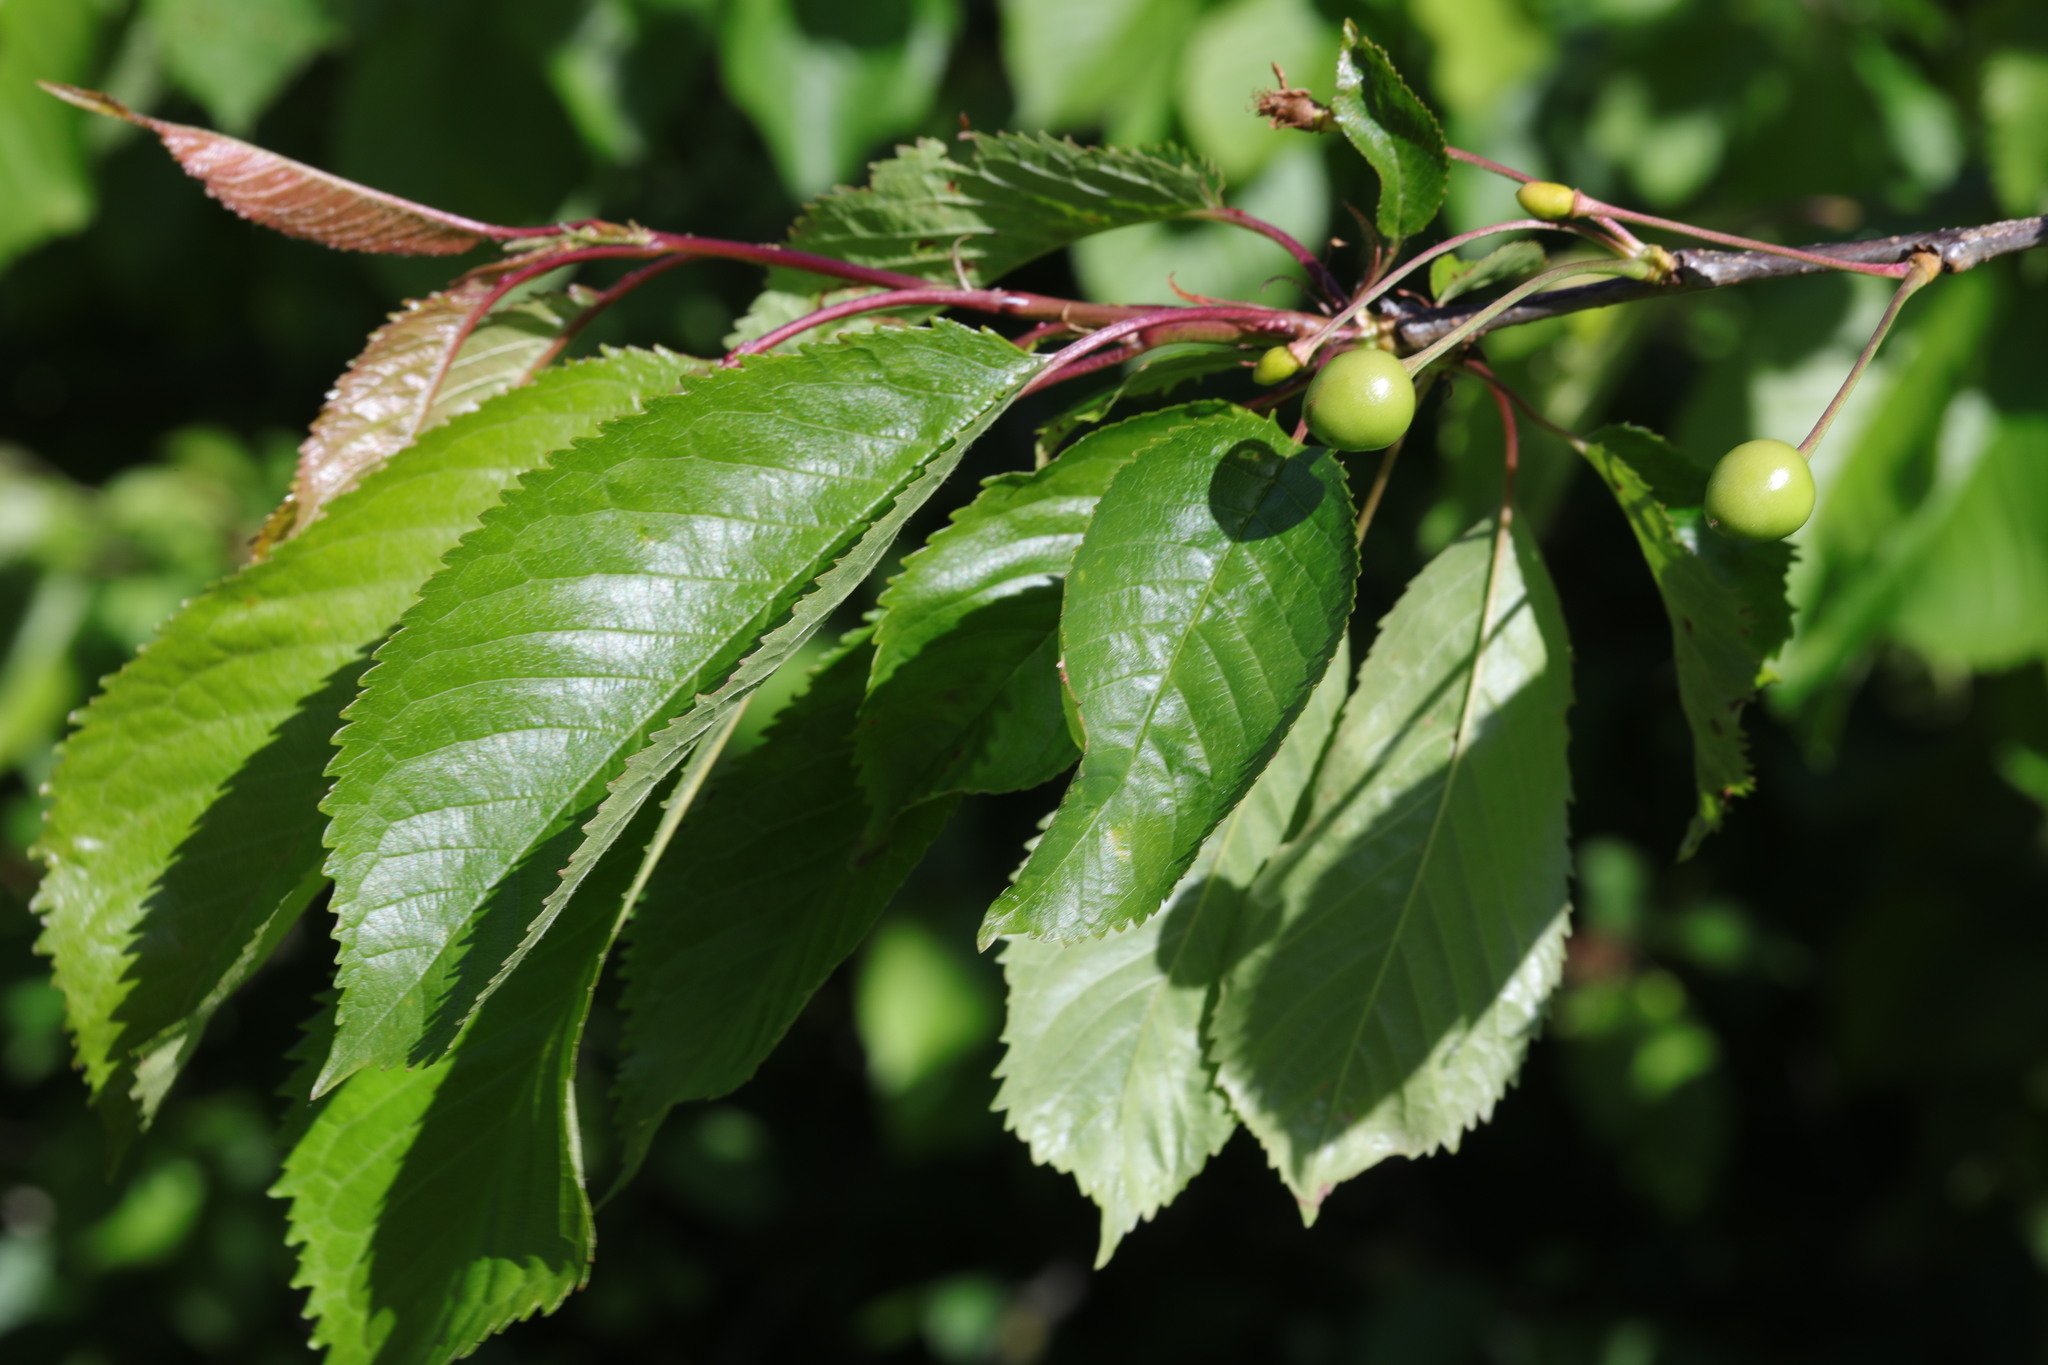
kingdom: Plantae
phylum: Tracheophyta
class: Magnoliopsida
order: Rosales
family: Rosaceae
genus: Prunus
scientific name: Prunus avium
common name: Sweet cherry
